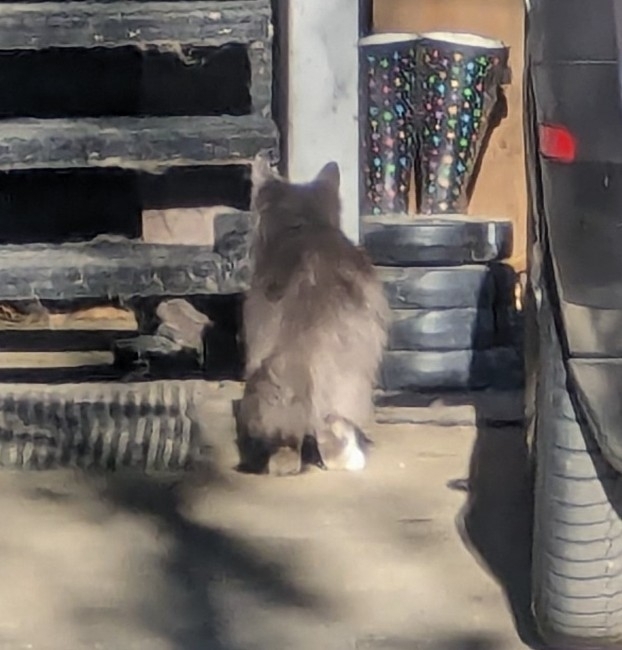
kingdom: Animalia
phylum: Chordata
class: Mammalia
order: Carnivora
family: Felidae
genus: Felis
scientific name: Felis catus
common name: Domestic cat
